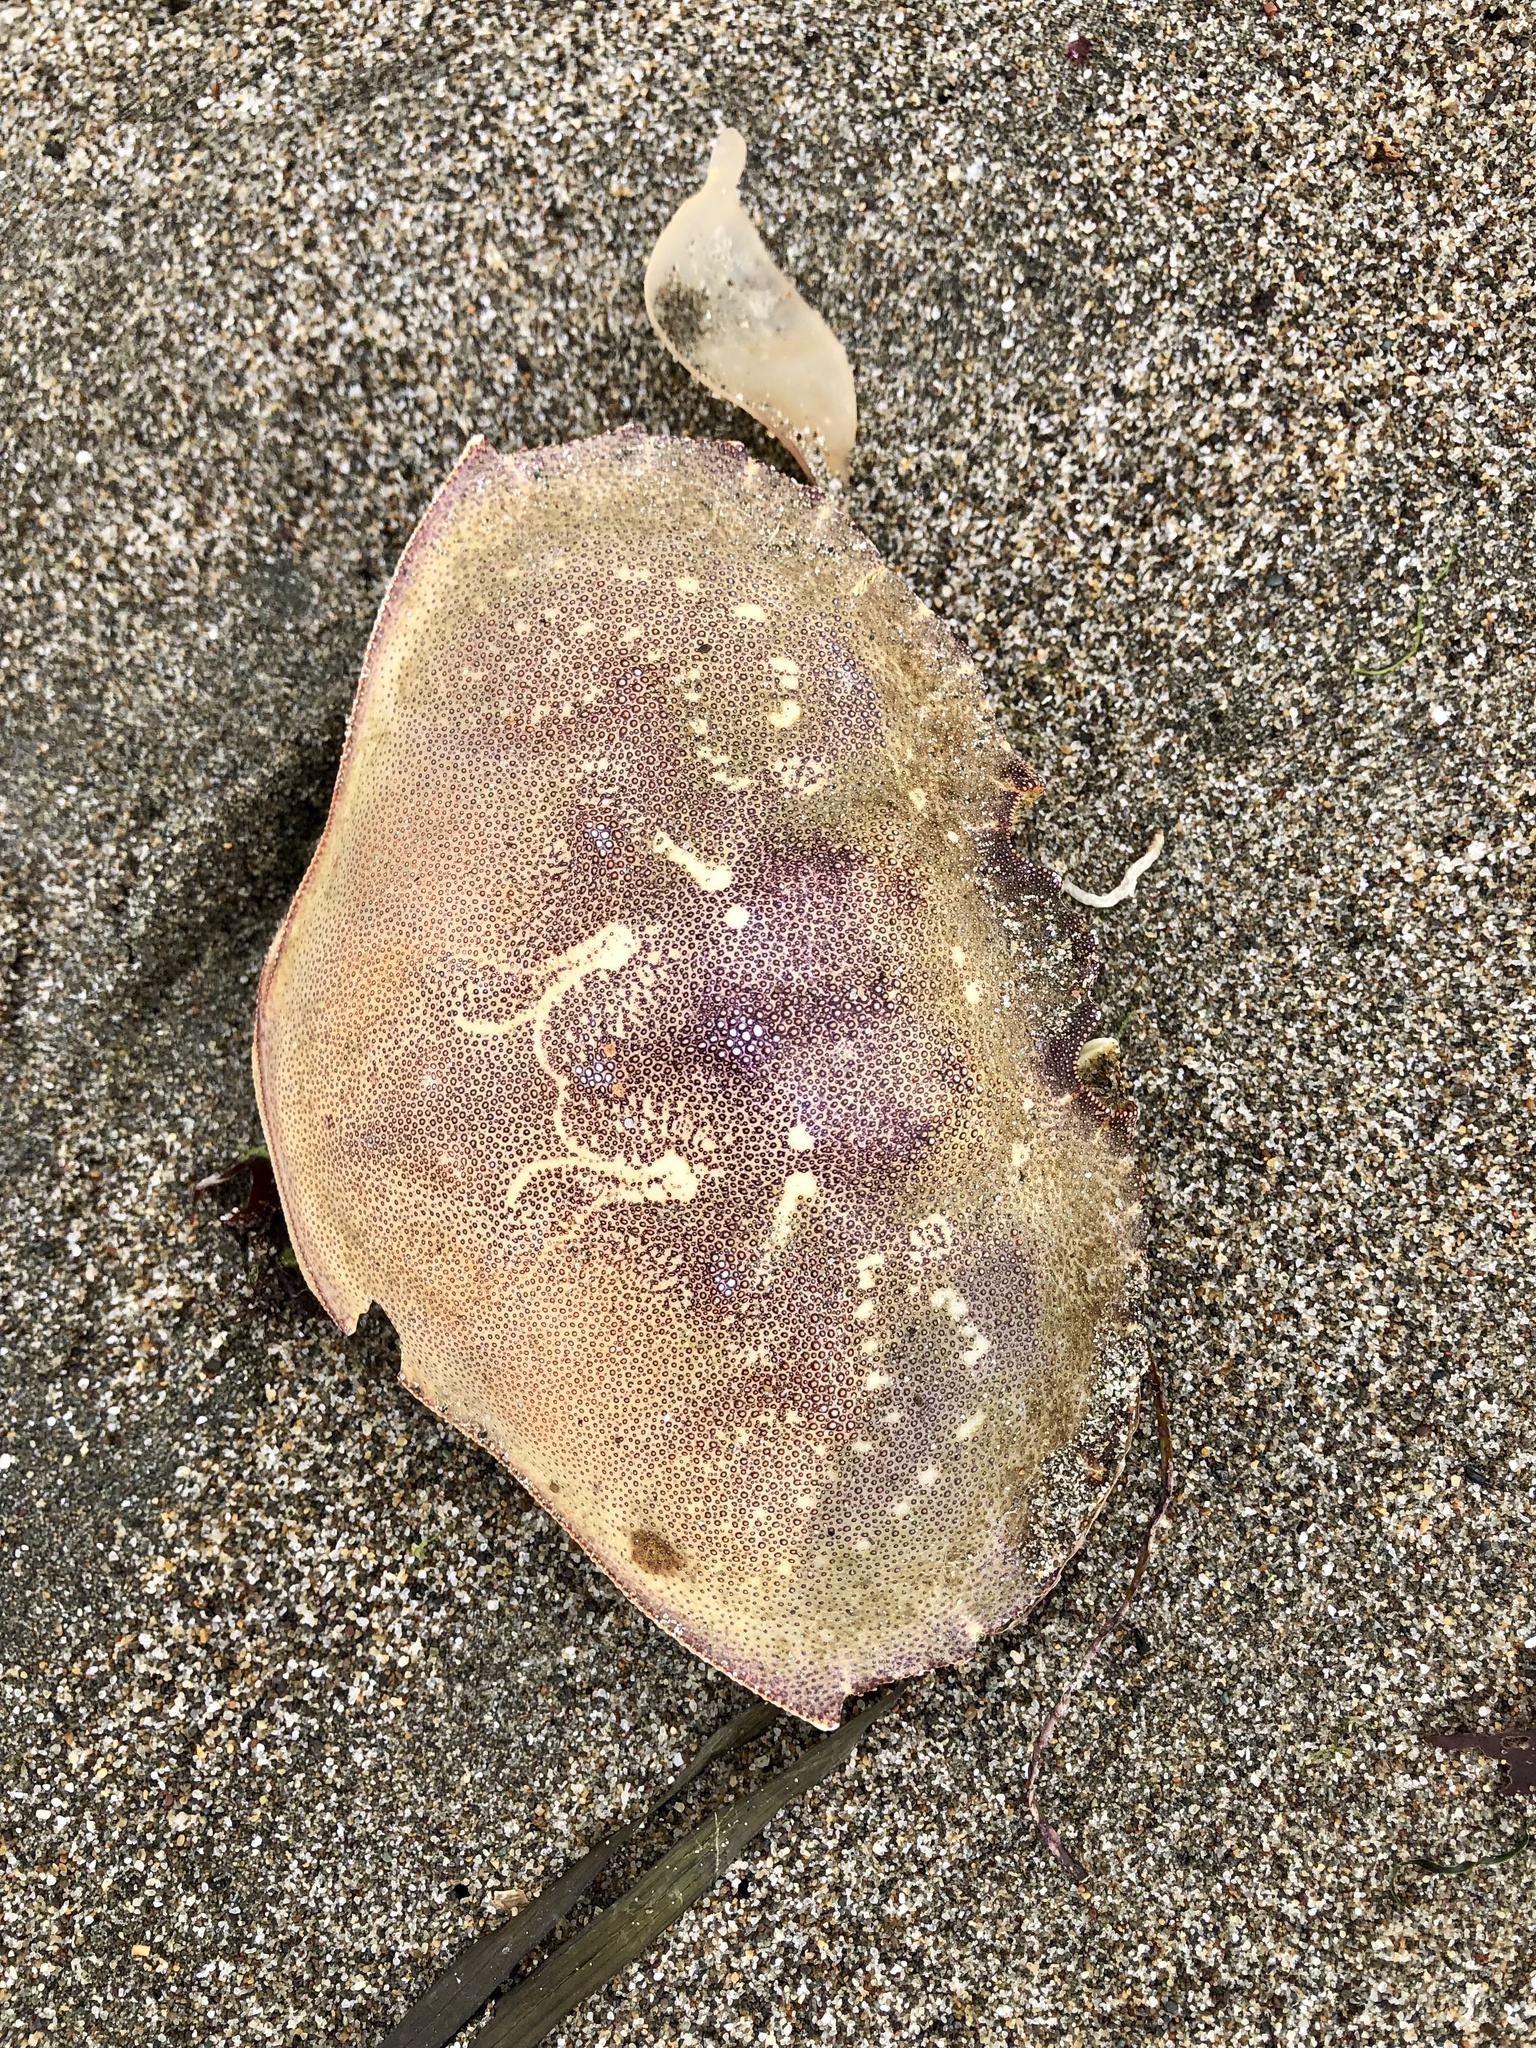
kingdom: Animalia
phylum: Arthropoda
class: Malacostraca
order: Decapoda
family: Cancridae
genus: Metacarcinus
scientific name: Metacarcinus magister
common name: Californian crab
